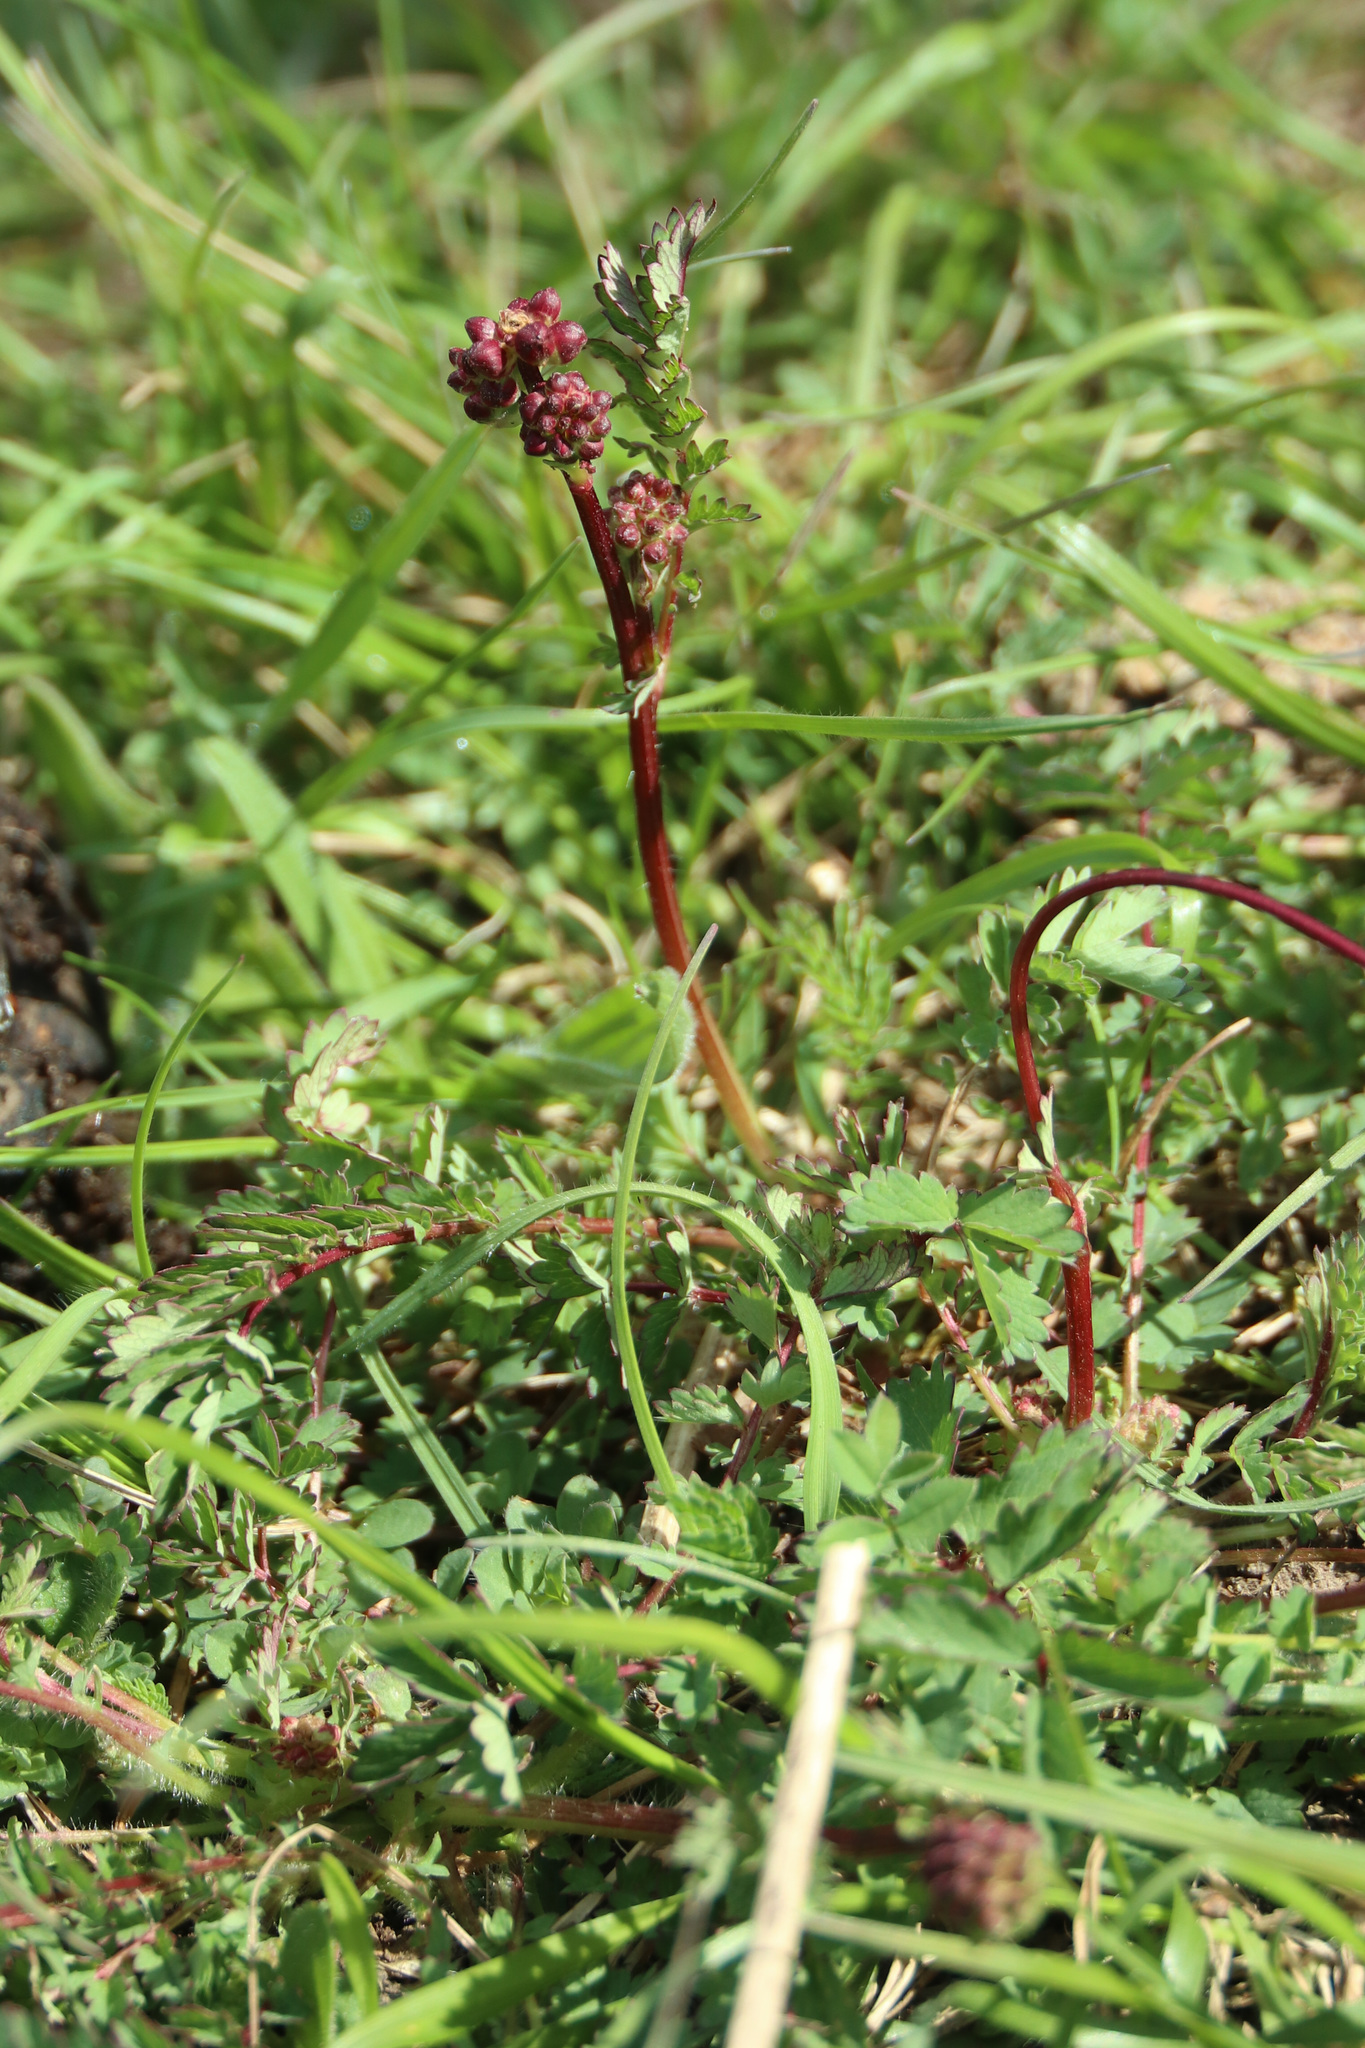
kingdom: Plantae
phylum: Tracheophyta
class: Magnoliopsida
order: Rosales
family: Rosaceae
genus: Poterium
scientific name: Poterium sanguisorba
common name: Salad burnet
